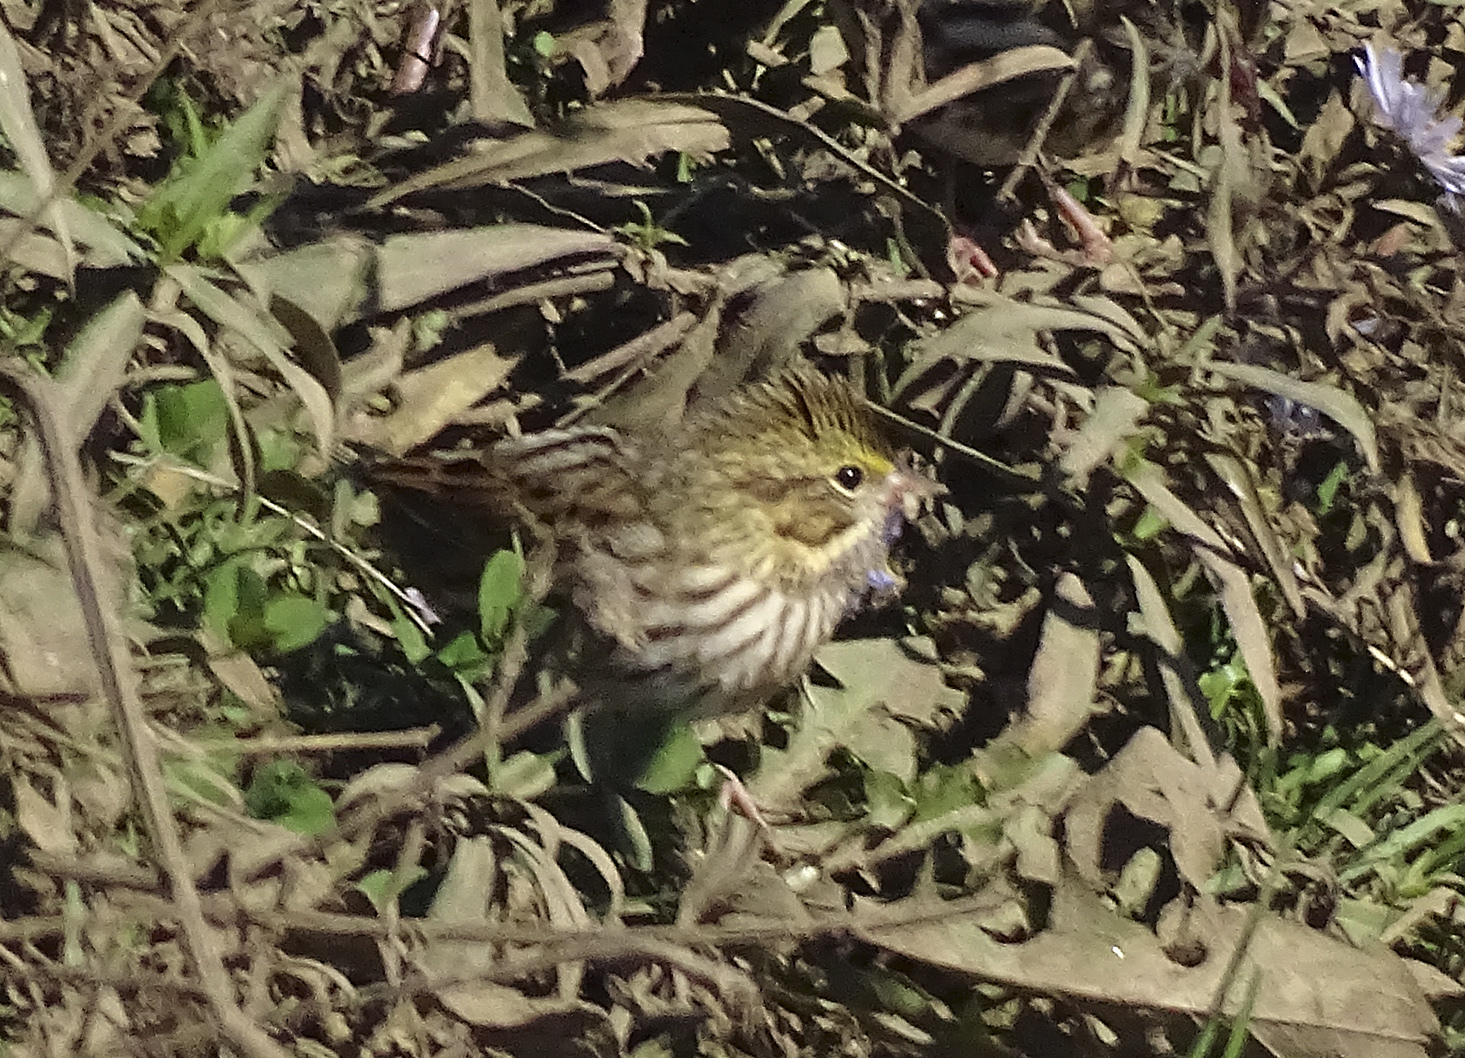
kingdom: Animalia
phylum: Chordata
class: Aves
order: Passeriformes
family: Passerellidae
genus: Passerculus
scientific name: Passerculus sandwichensis
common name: Savannah sparrow
